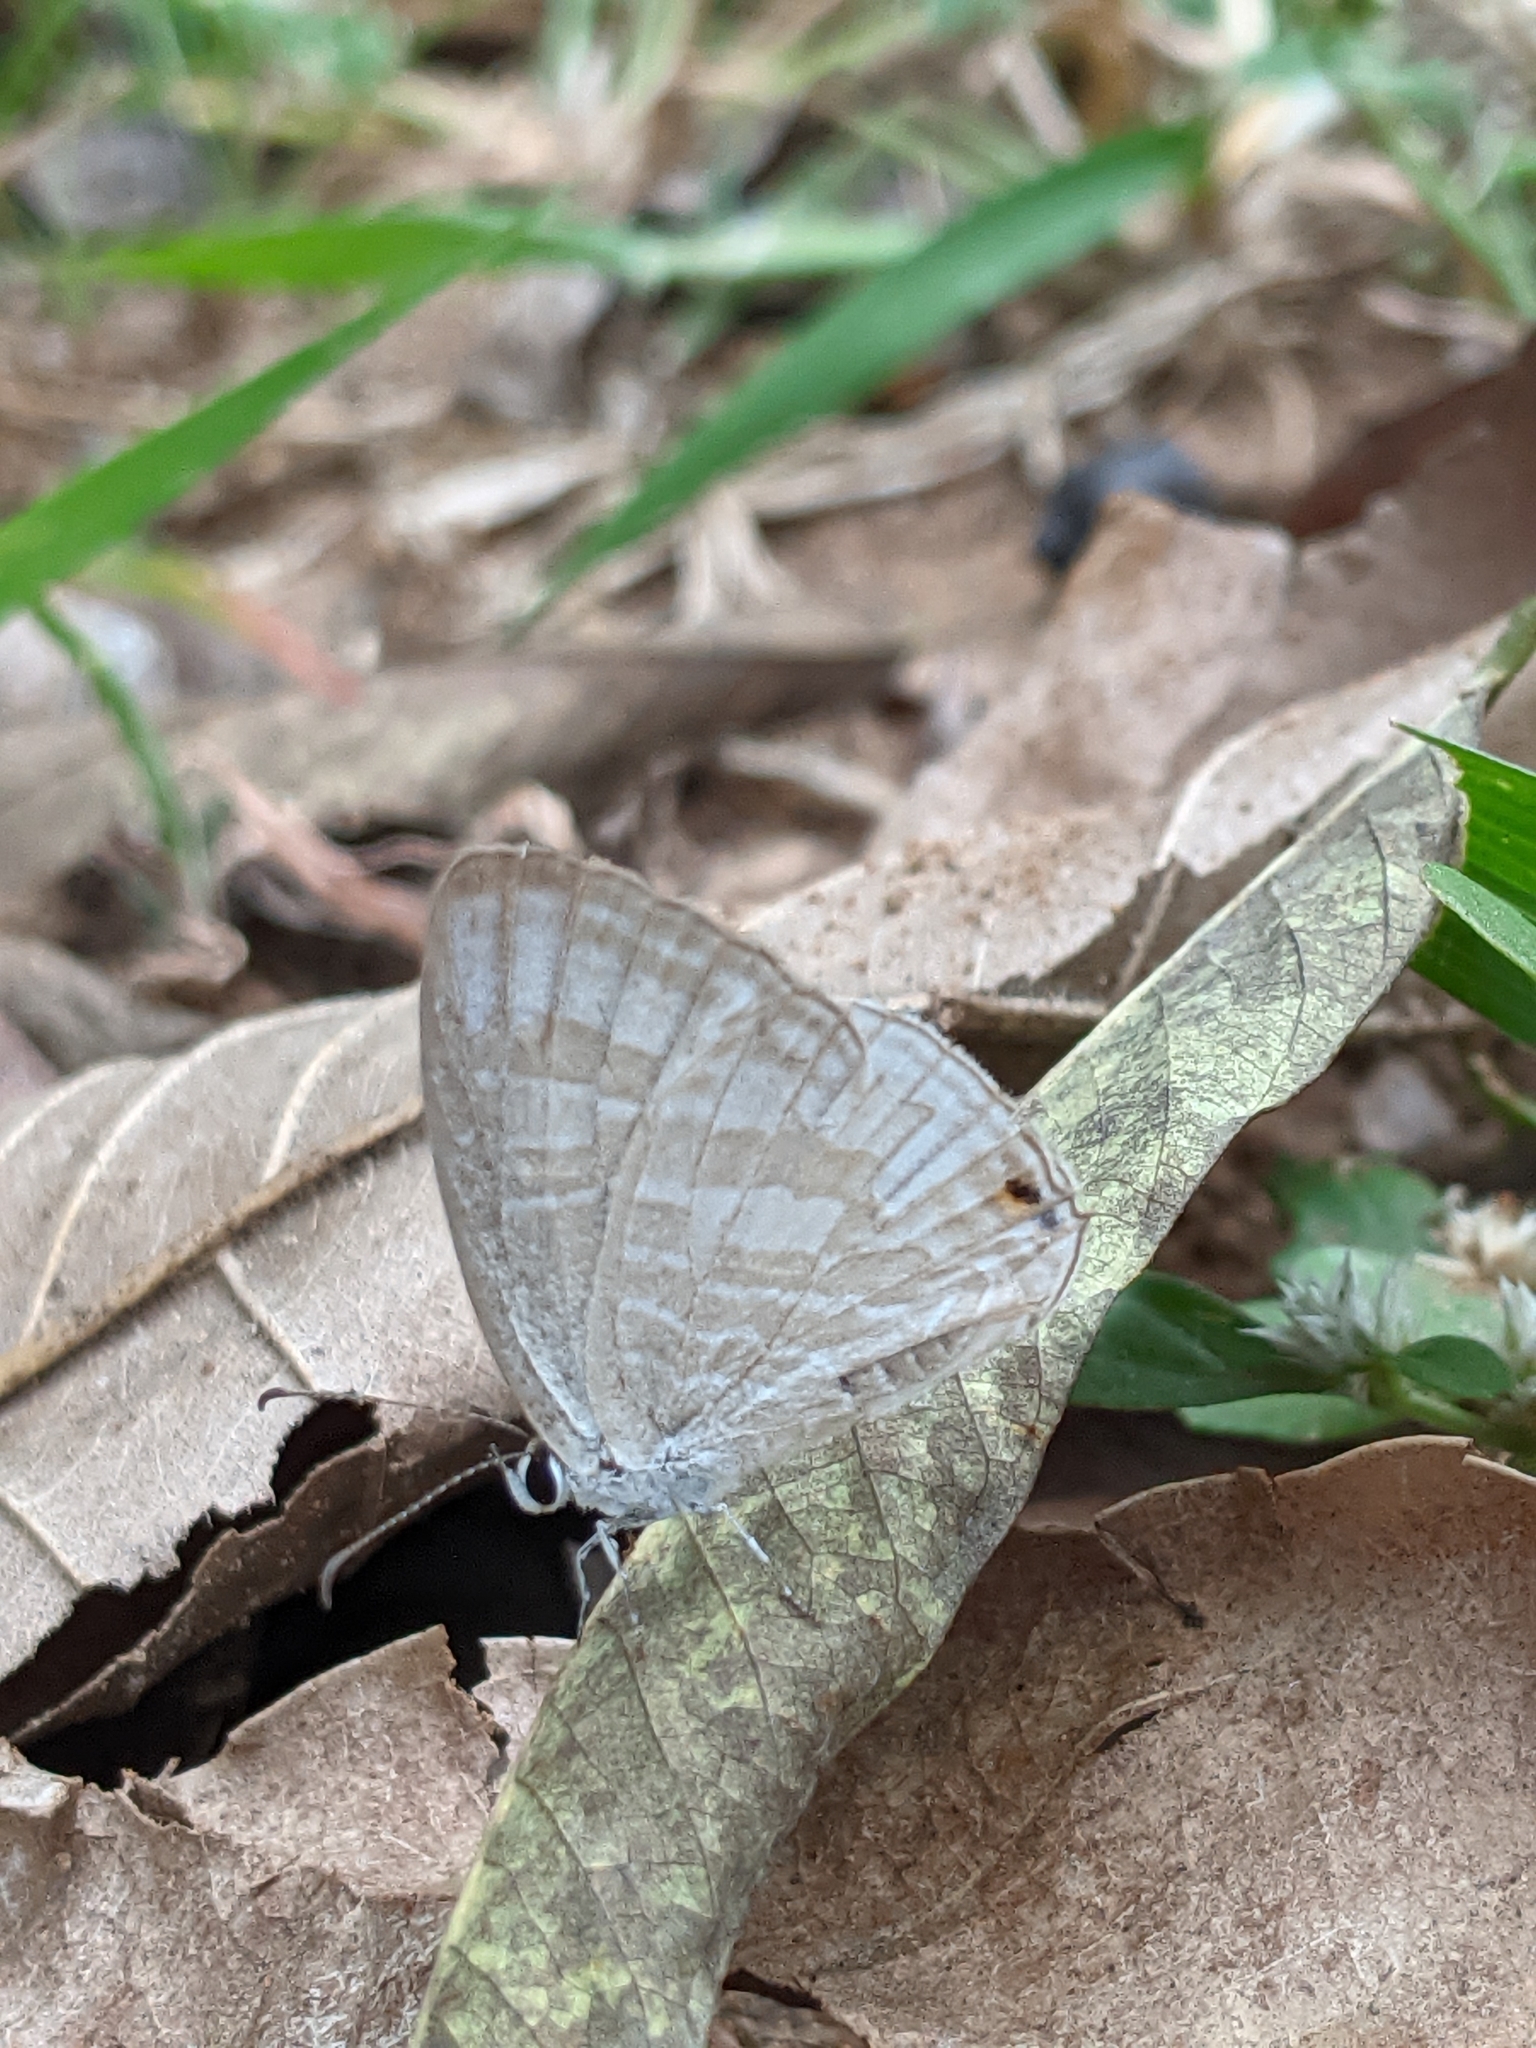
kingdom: Animalia
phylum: Arthropoda
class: Insecta
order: Lepidoptera
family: Lycaenidae
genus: Jamides
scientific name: Jamides celeno
